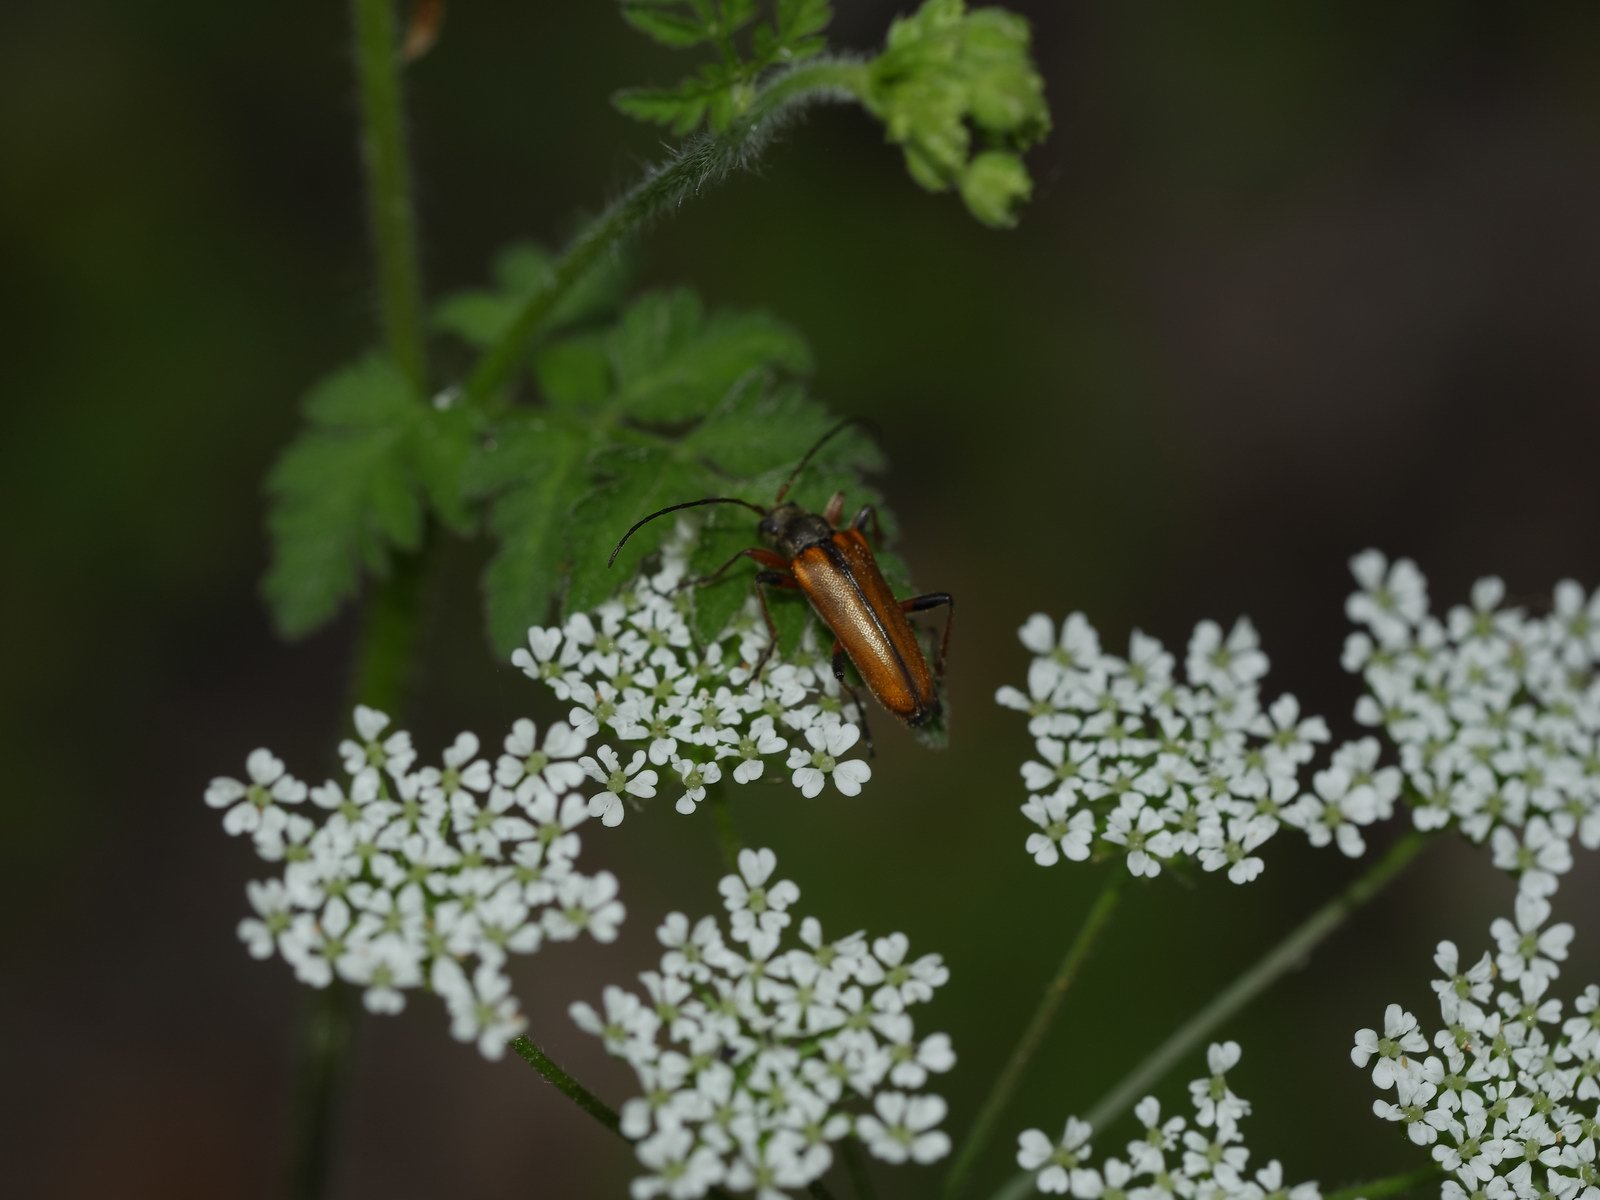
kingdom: Animalia
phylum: Arthropoda
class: Insecta
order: Coleoptera
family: Cerambycidae
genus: Cortodera
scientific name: Cortodera humeralis
